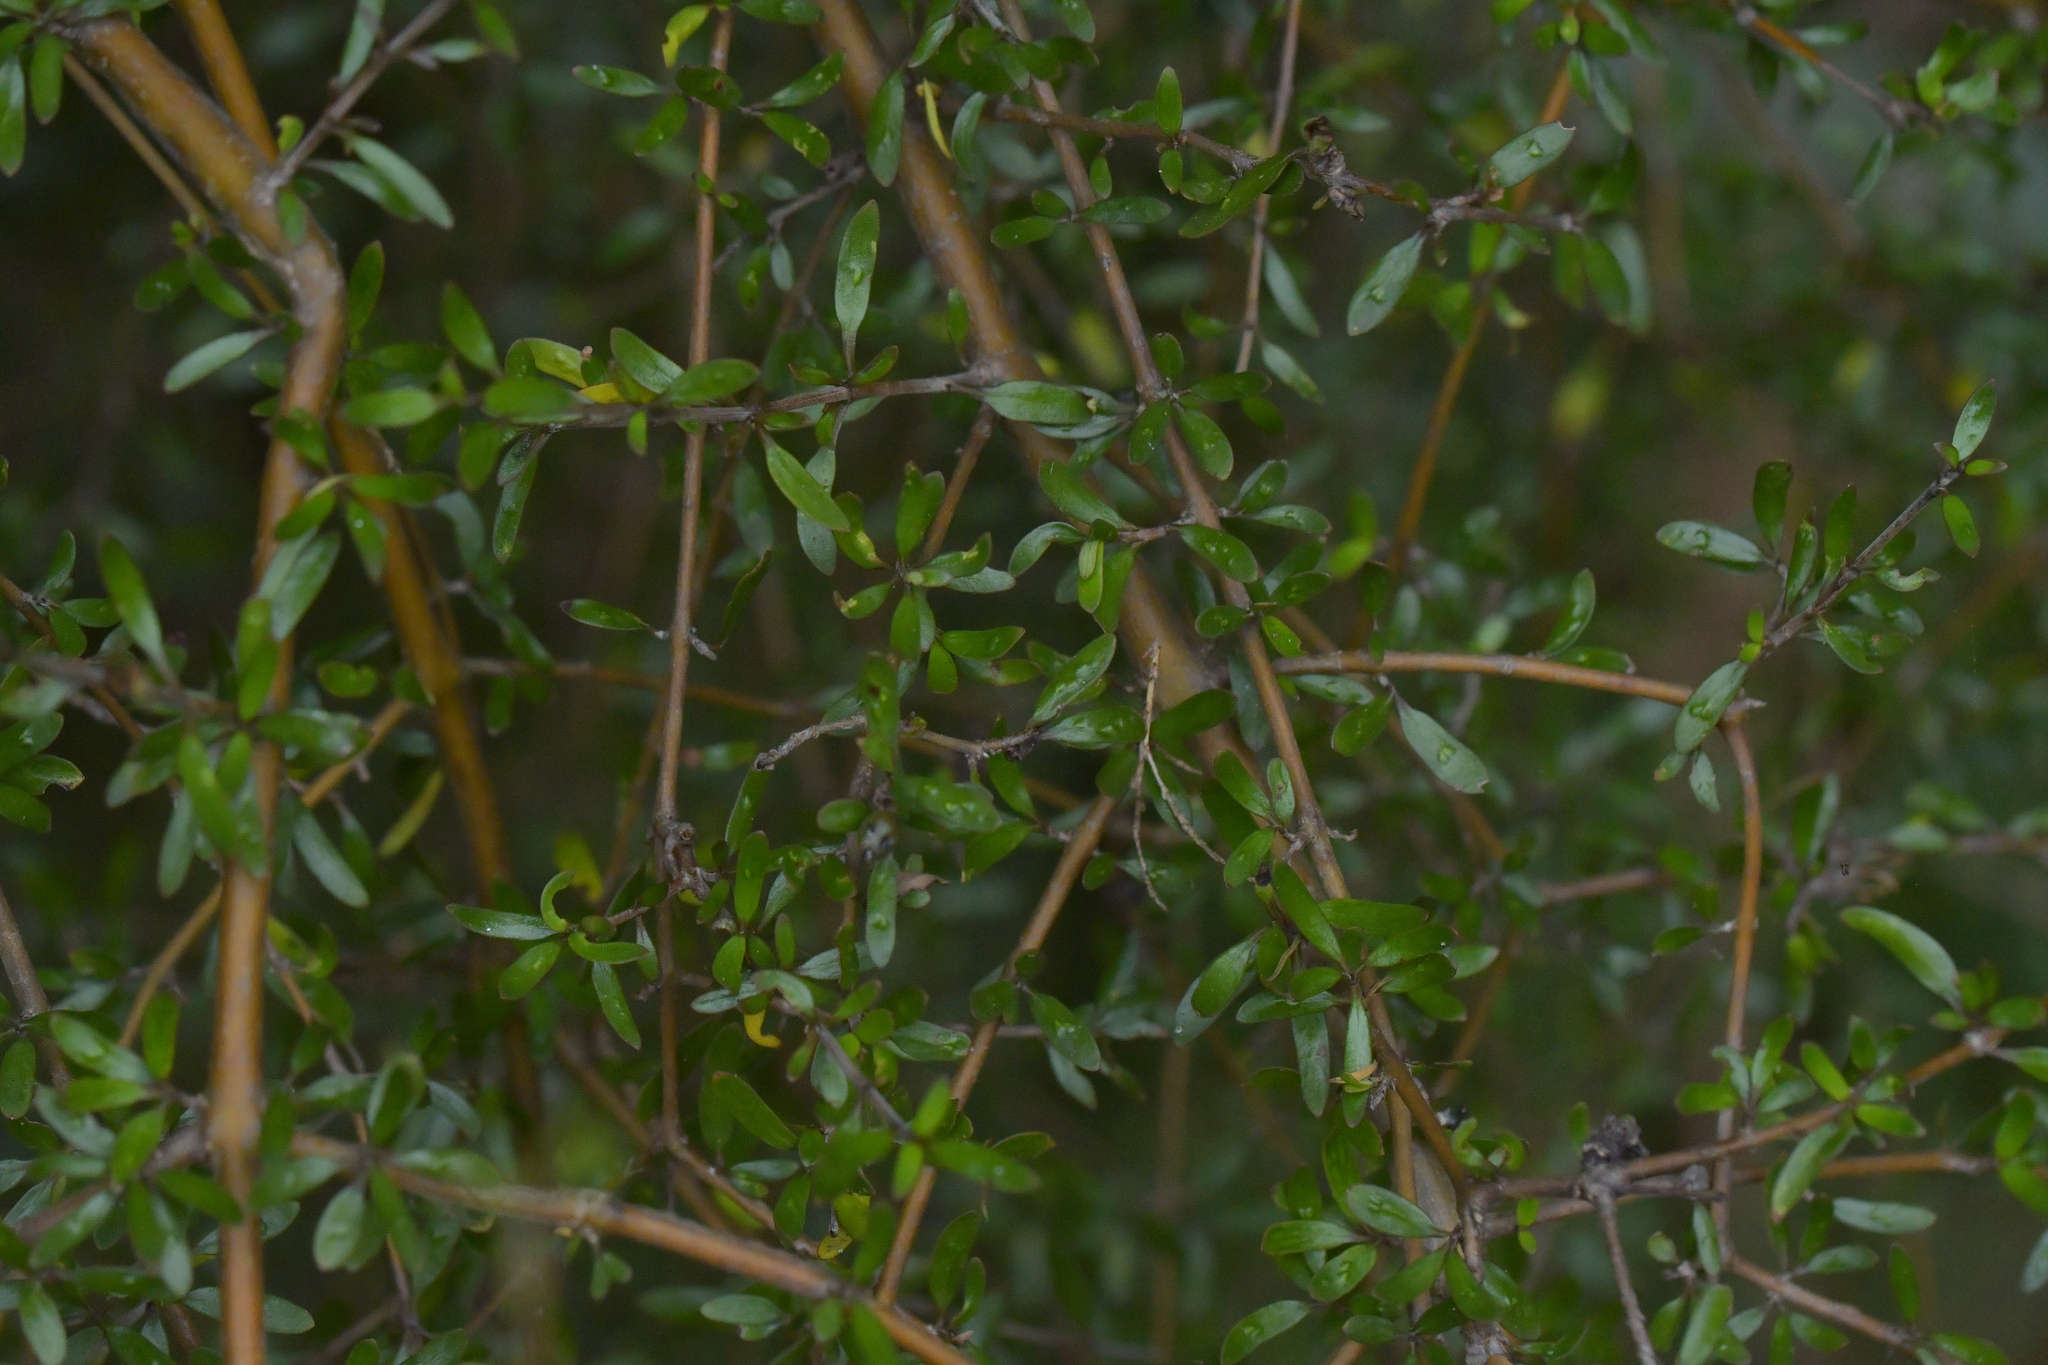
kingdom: Plantae
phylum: Tracheophyta
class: Magnoliopsida
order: Gentianales
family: Rubiaceae
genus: Coprosma
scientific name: Coprosma propinqua
